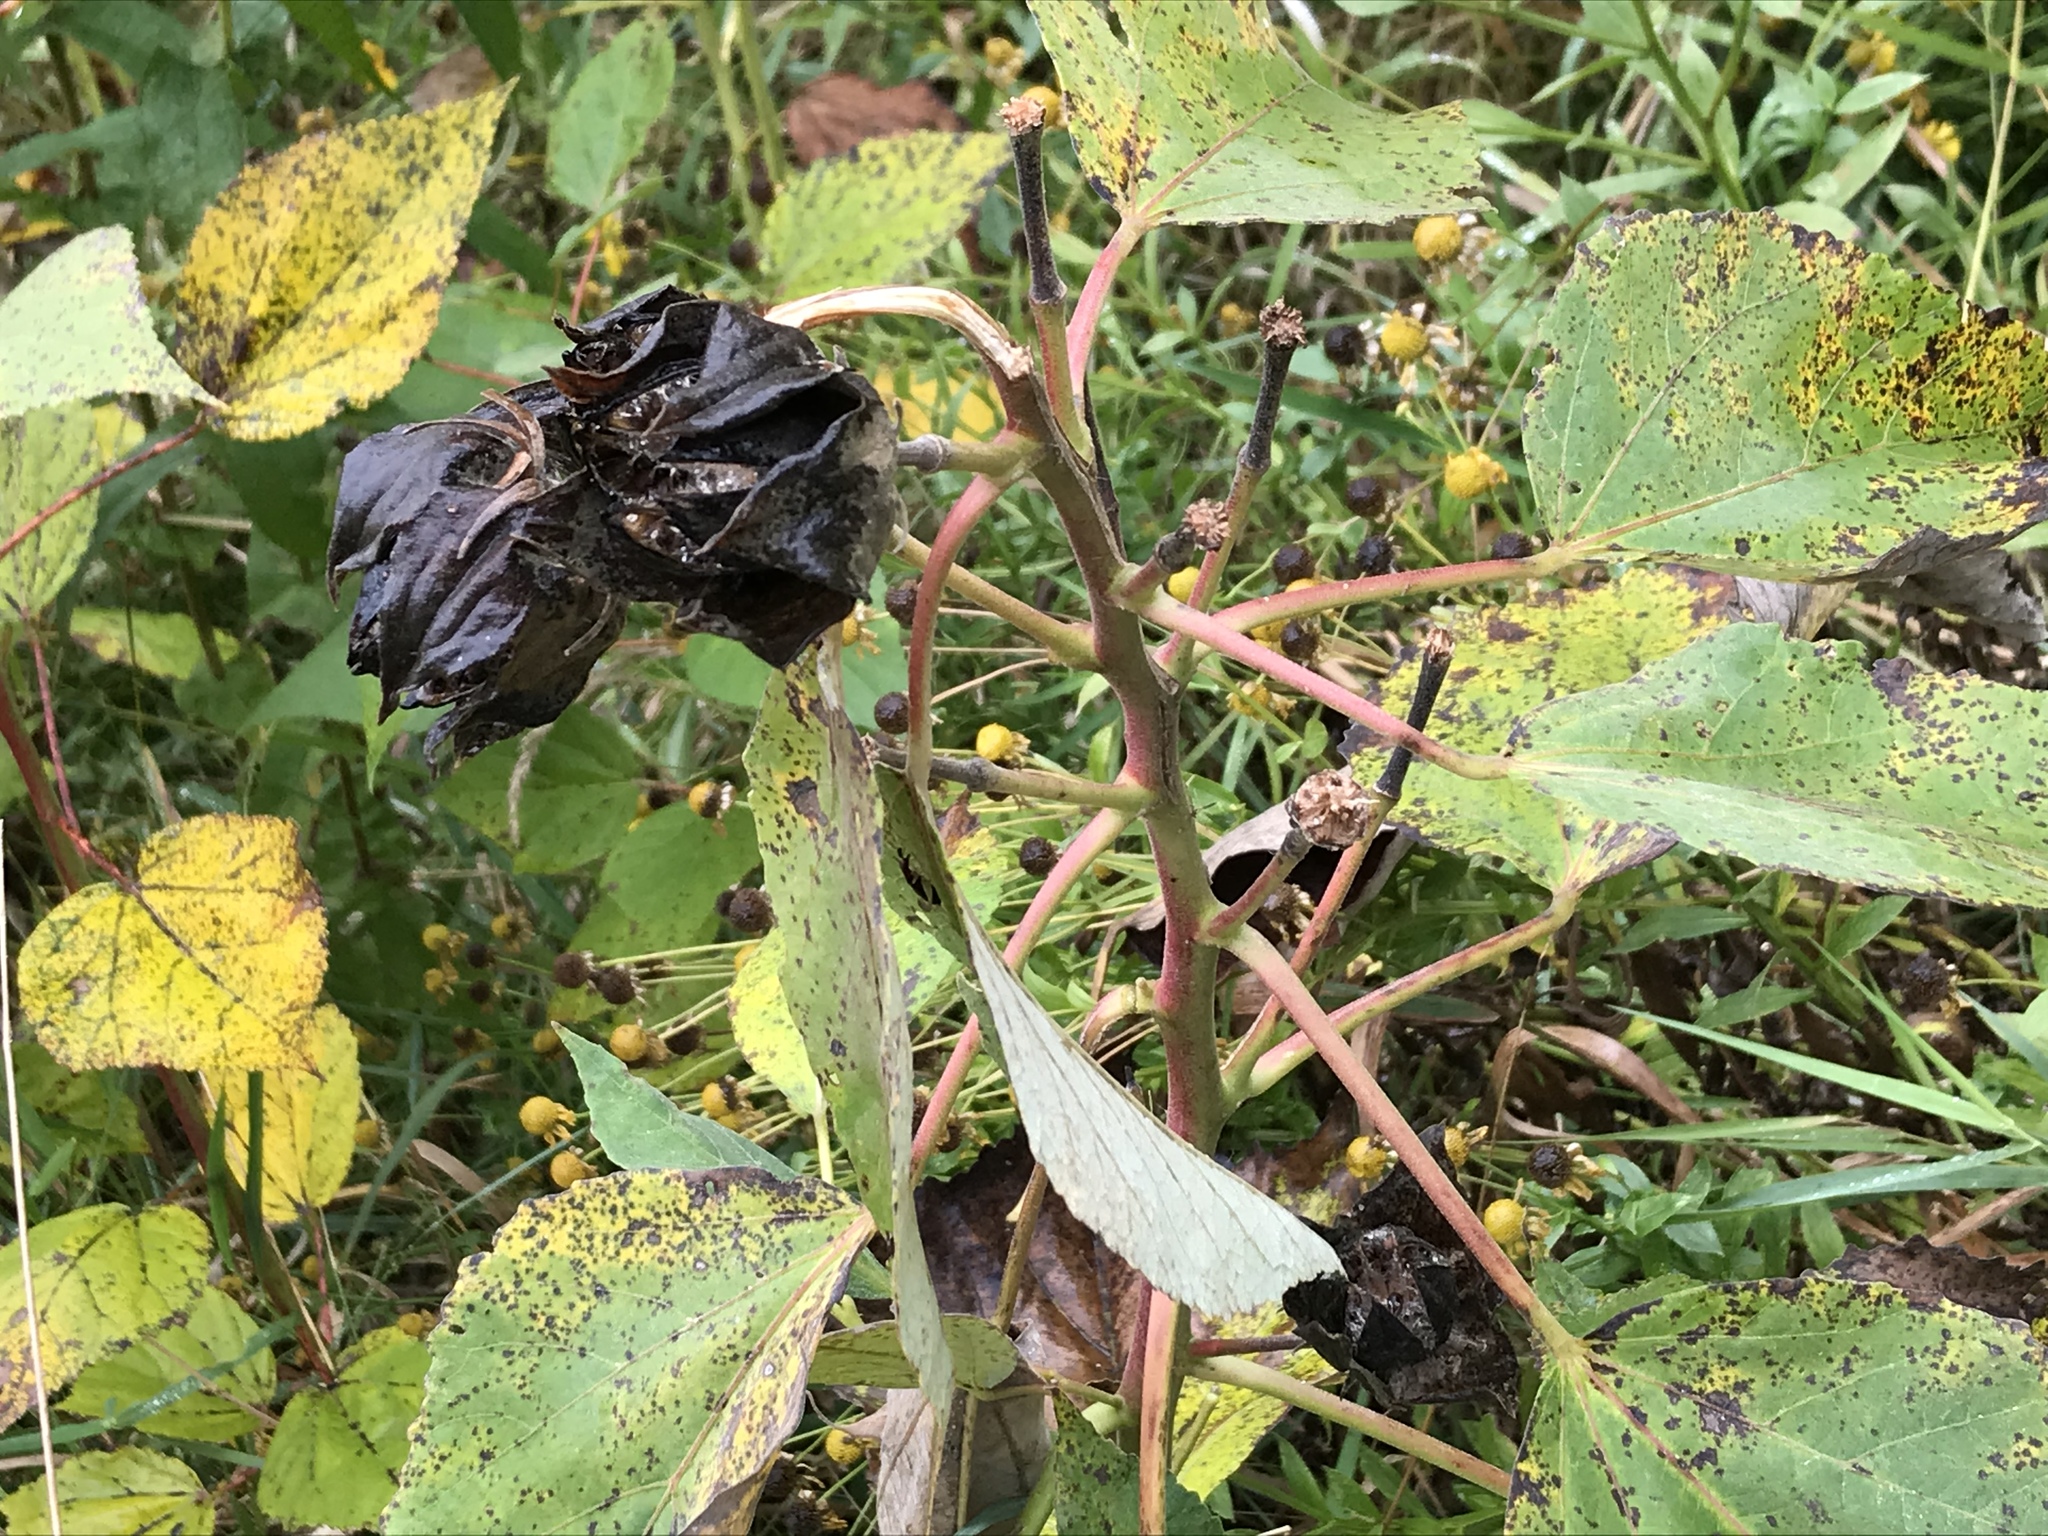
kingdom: Plantae
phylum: Tracheophyta
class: Magnoliopsida
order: Malvales
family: Malvaceae
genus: Hibiscus
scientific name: Hibiscus moscheutos
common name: Common rose-mallow
